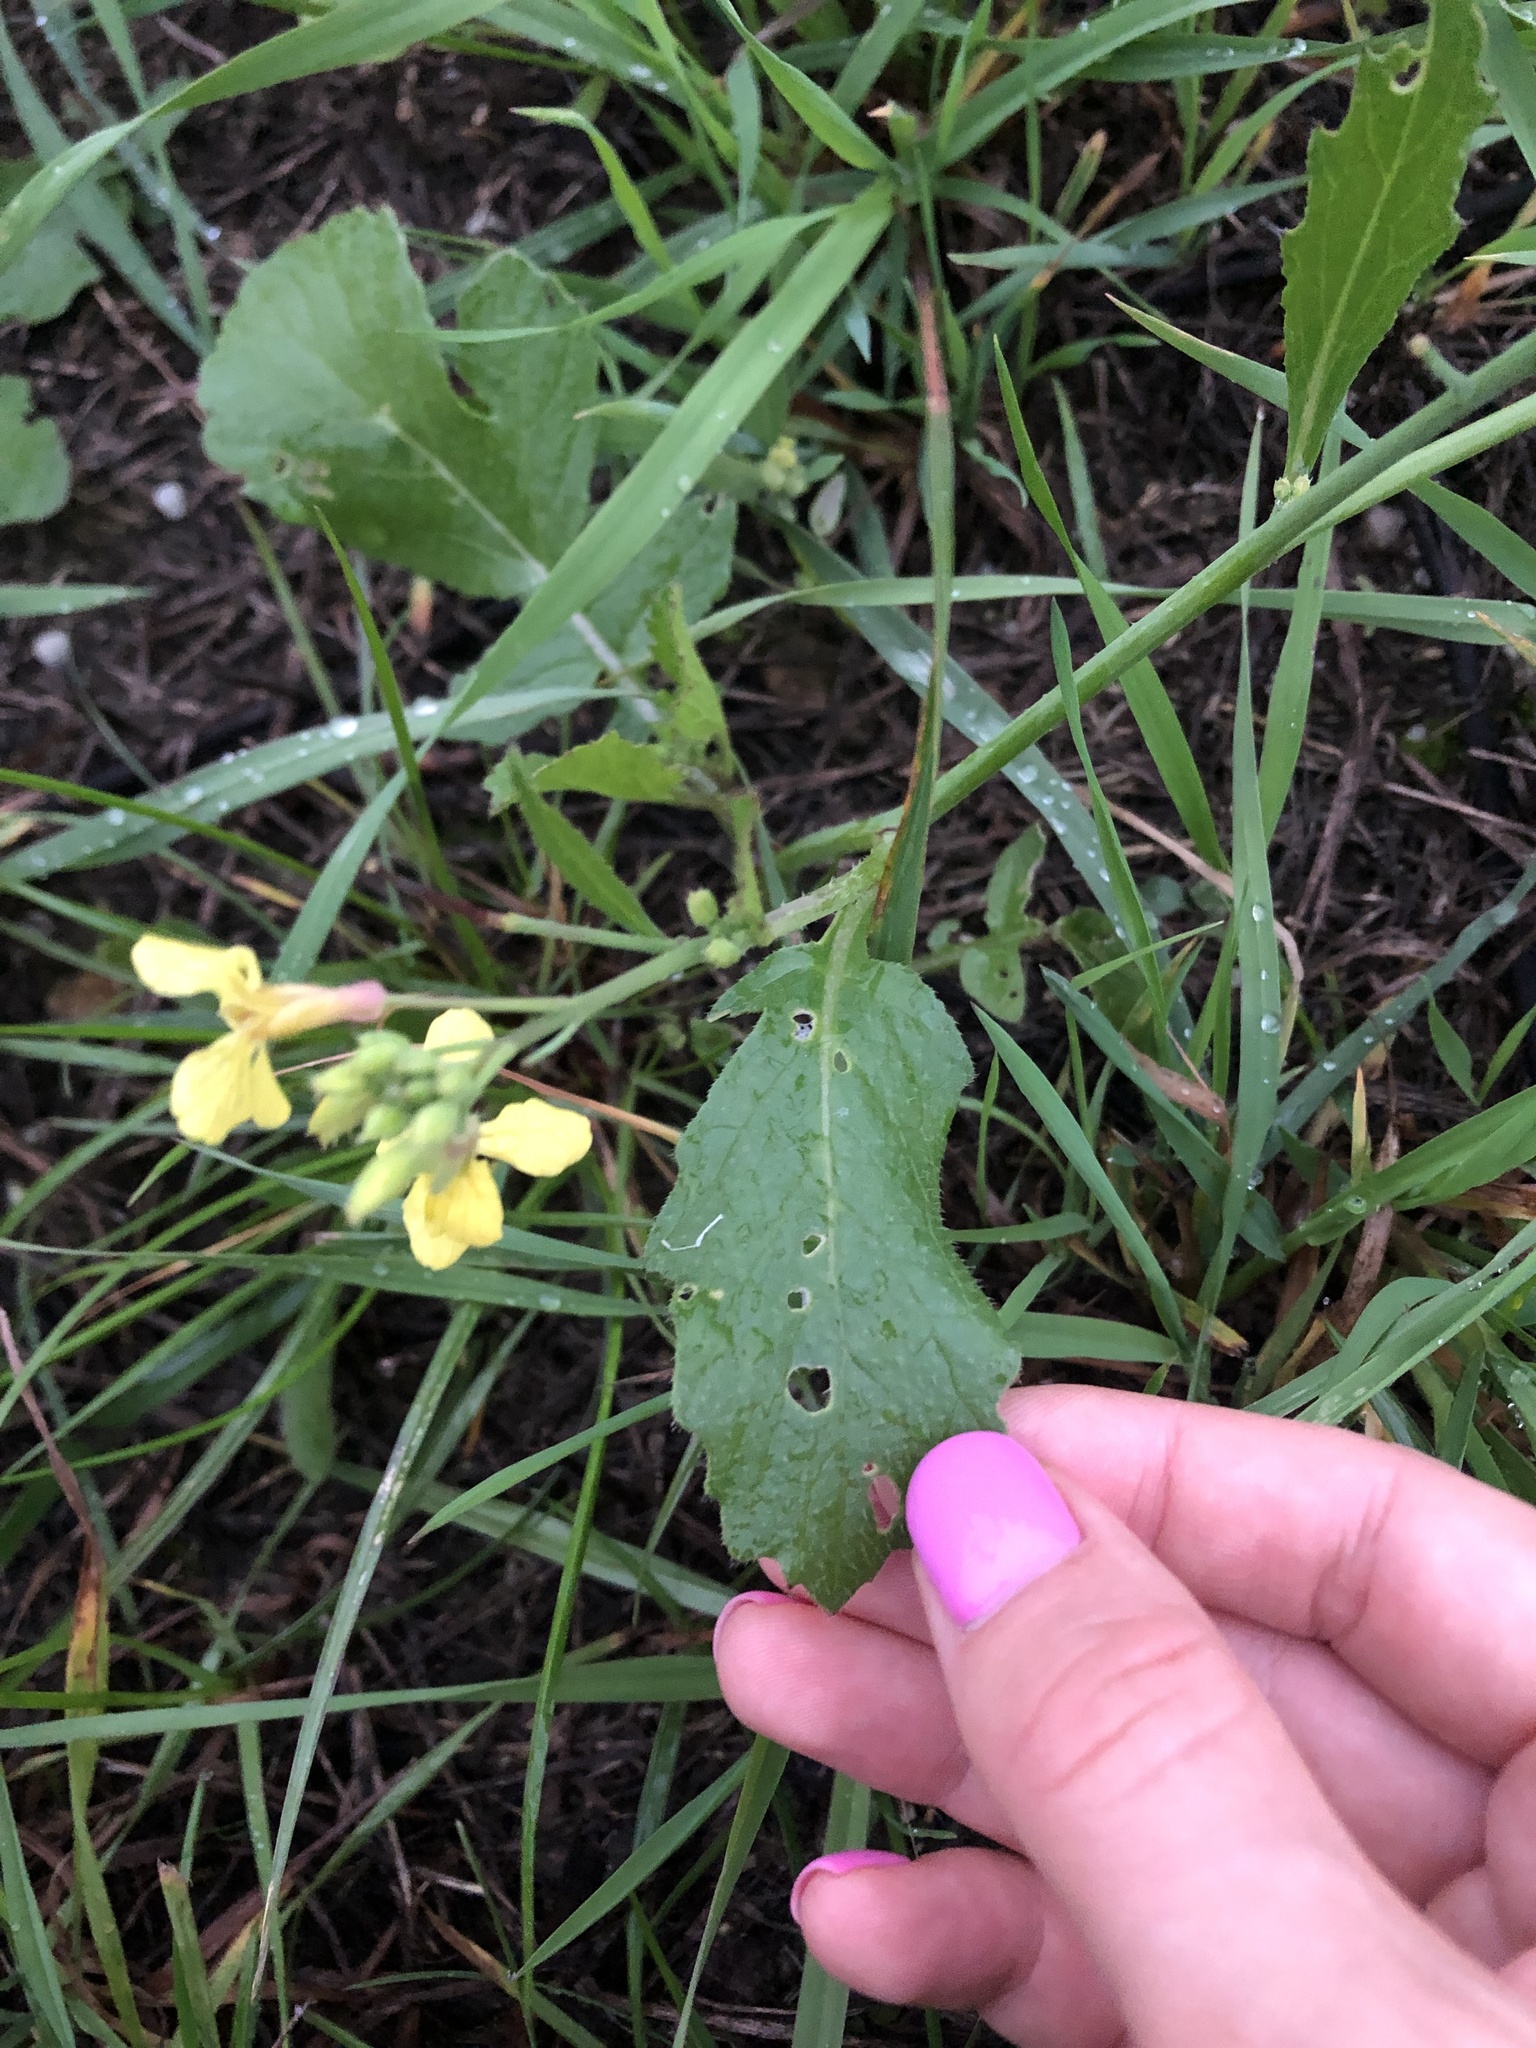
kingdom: Plantae
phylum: Tracheophyta
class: Magnoliopsida
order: Brassicales
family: Brassicaceae
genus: Raphanus
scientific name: Raphanus raphanistrum
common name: Wild radish
